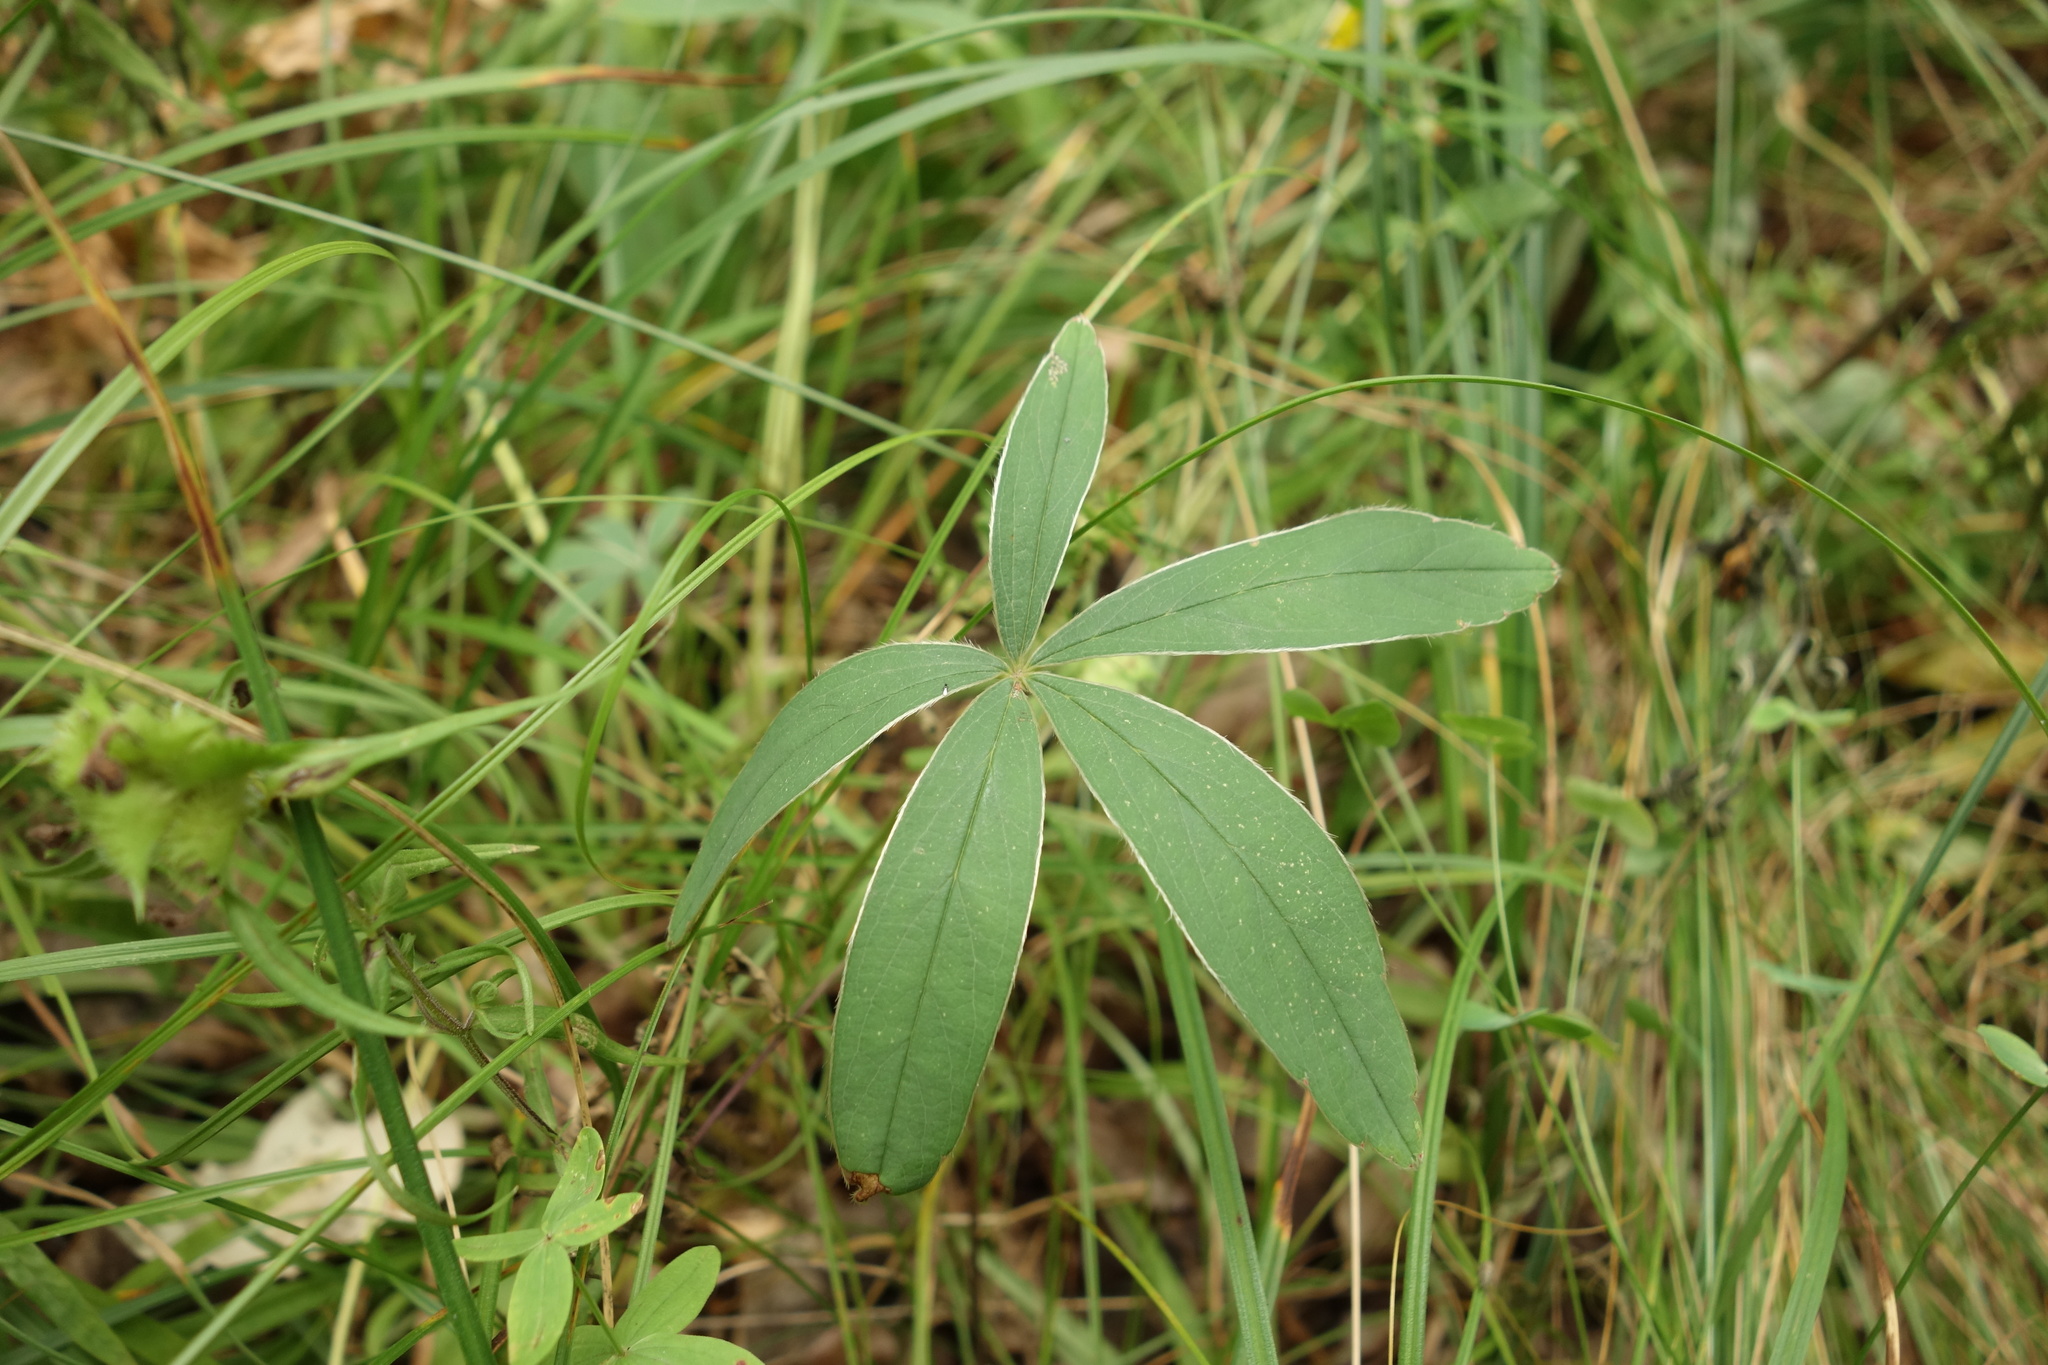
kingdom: Plantae
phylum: Tracheophyta
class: Magnoliopsida
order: Rosales
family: Rosaceae
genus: Potentilla
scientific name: Potentilla alba
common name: White cinquefoil
